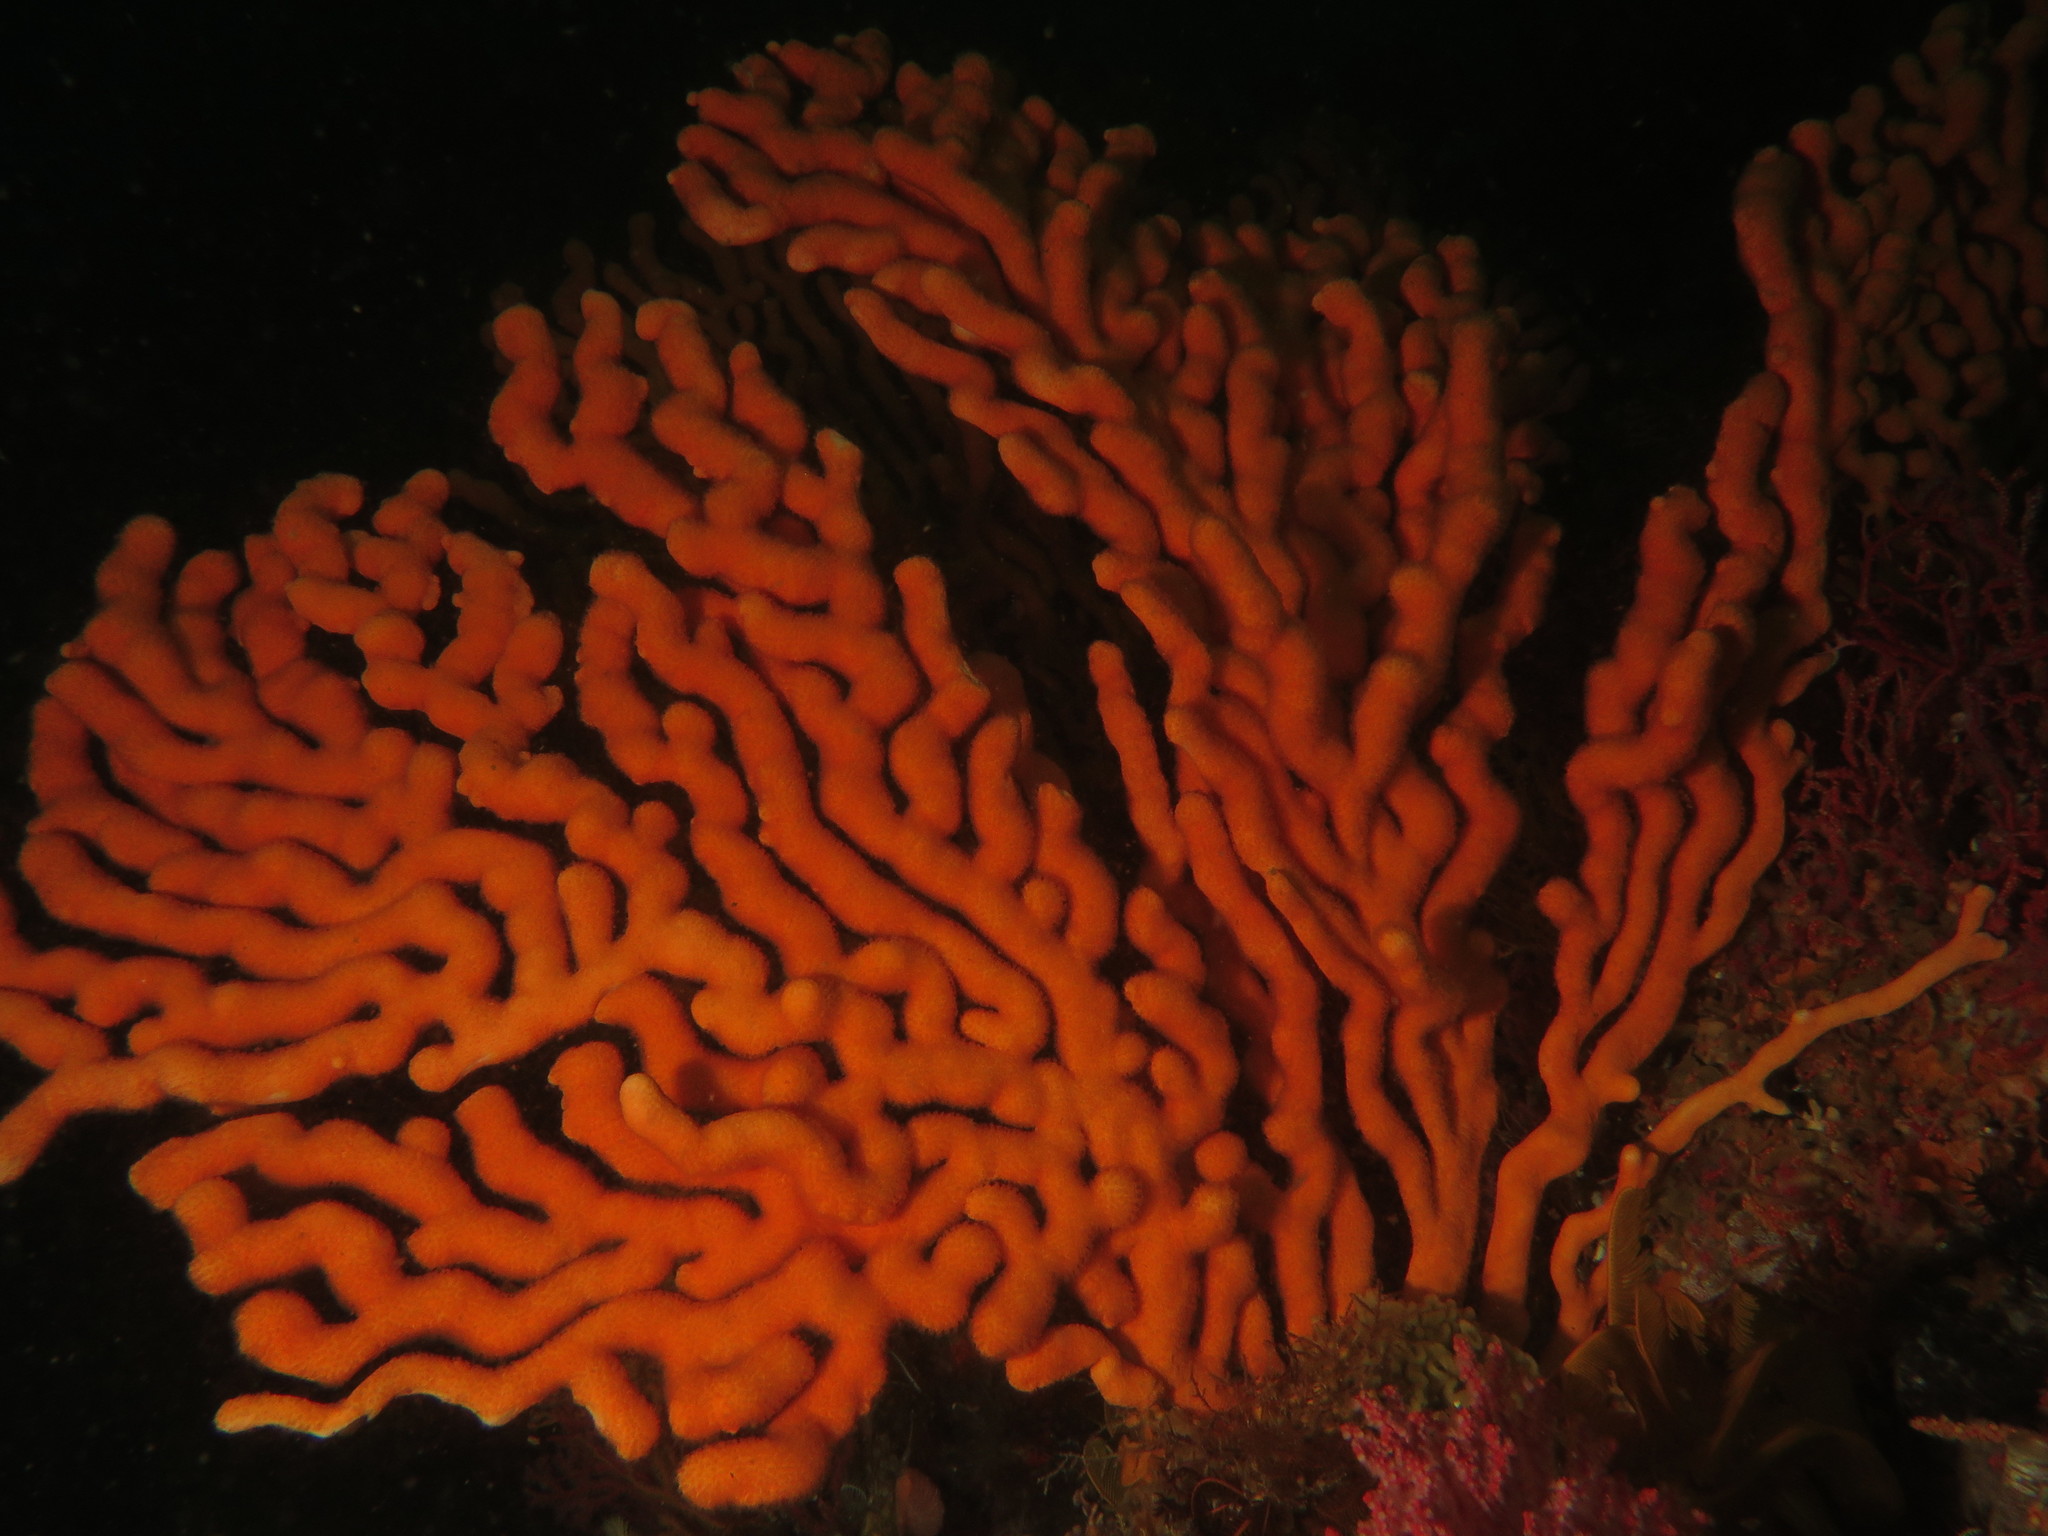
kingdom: Animalia
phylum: Cnidaria
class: Anthozoa
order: Malacalcyonacea
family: Eunicellidae
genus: Eunicella
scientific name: Eunicella tricoronata
